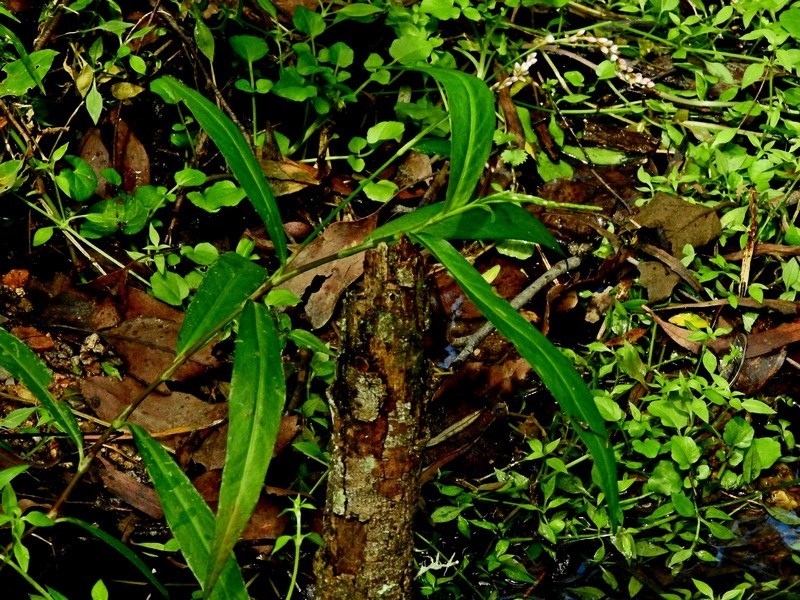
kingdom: Plantae
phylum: Tracheophyta
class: Magnoliopsida
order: Caryophyllales
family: Polygonaceae
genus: Persicaria
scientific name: Persicaria decipiens
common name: Willow-weed
